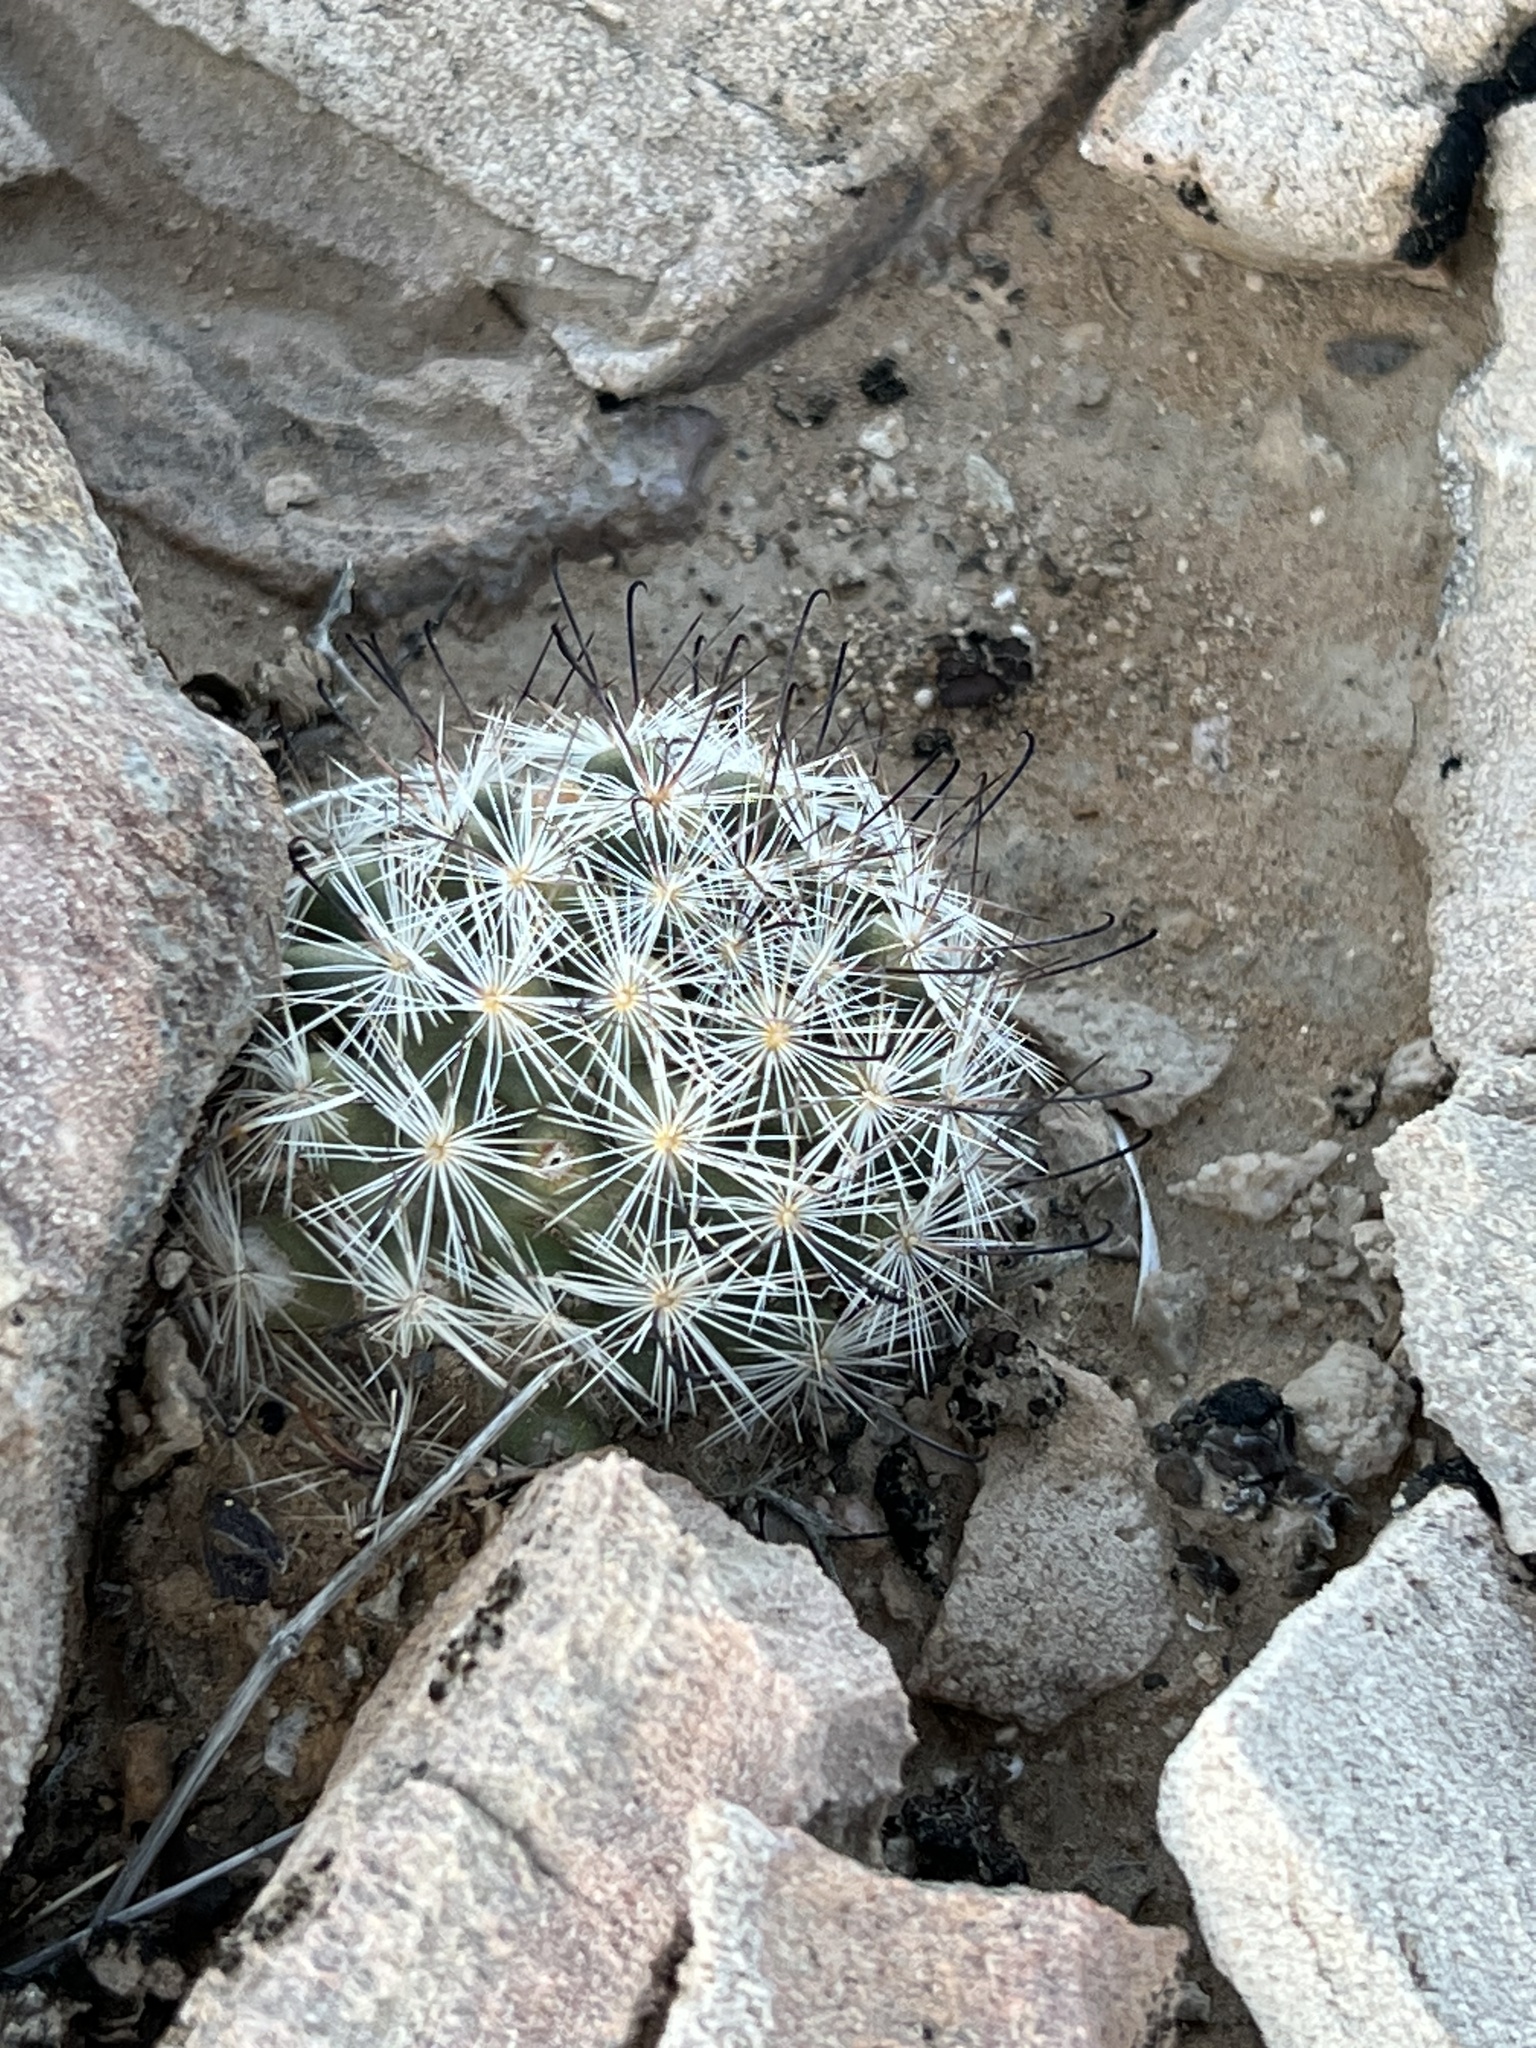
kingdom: Plantae
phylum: Tracheophyta
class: Magnoliopsida
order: Caryophyllales
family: Cactaceae
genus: Cochemiea
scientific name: Cochemiea tetrancistra
